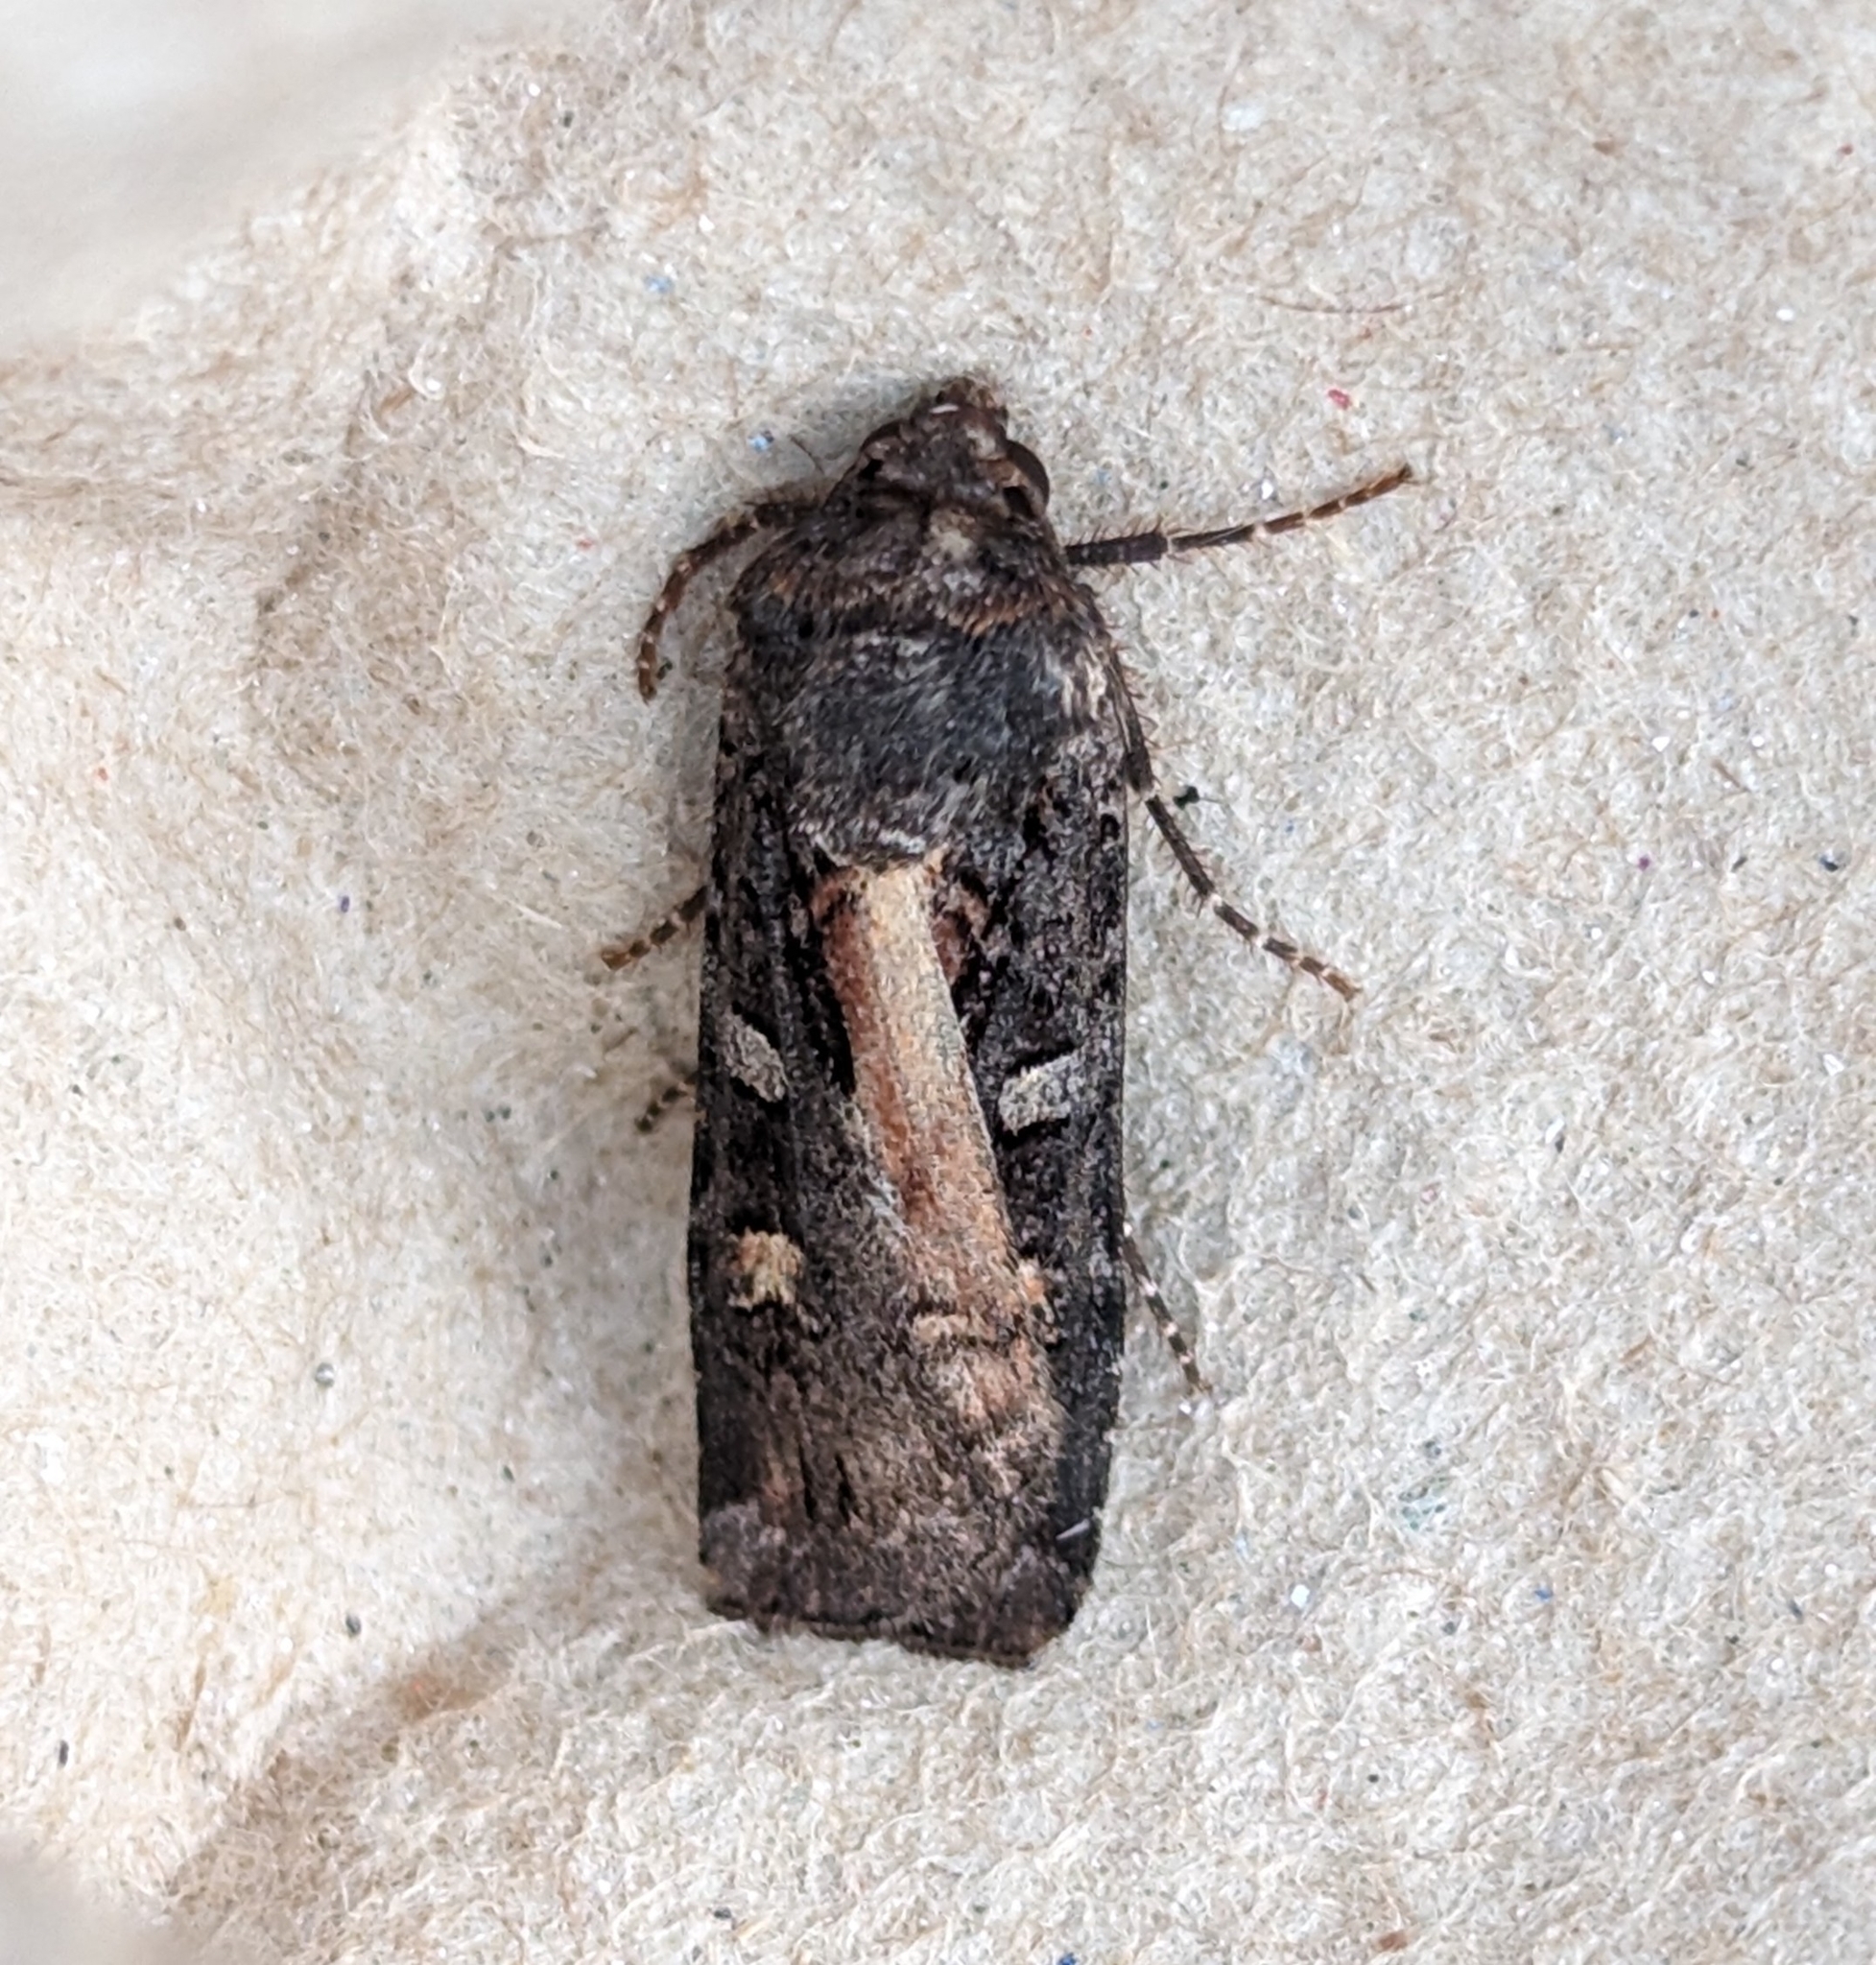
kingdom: Animalia
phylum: Arthropoda
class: Insecta
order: Lepidoptera
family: Noctuidae
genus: Actebia
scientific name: Actebia fennica
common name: Eversmann's rustic
